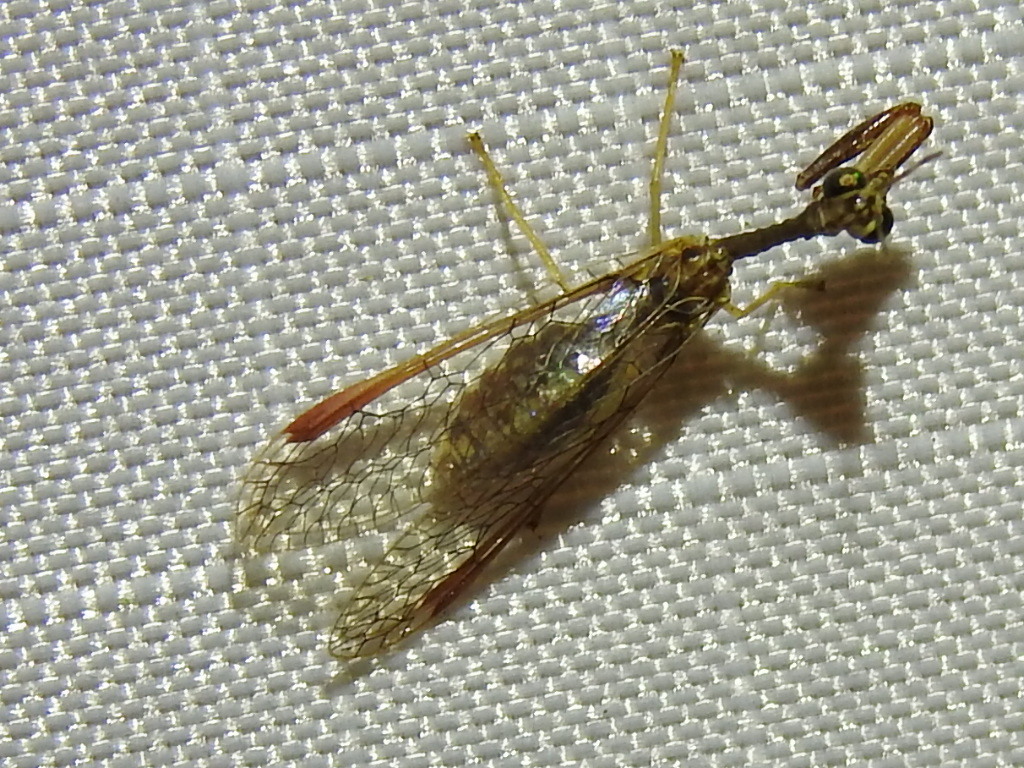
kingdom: Animalia
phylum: Arthropoda
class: Insecta
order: Neuroptera
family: Mantispidae
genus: Dicromantispa
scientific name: Dicromantispa sayi
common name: Say's mantidfly
